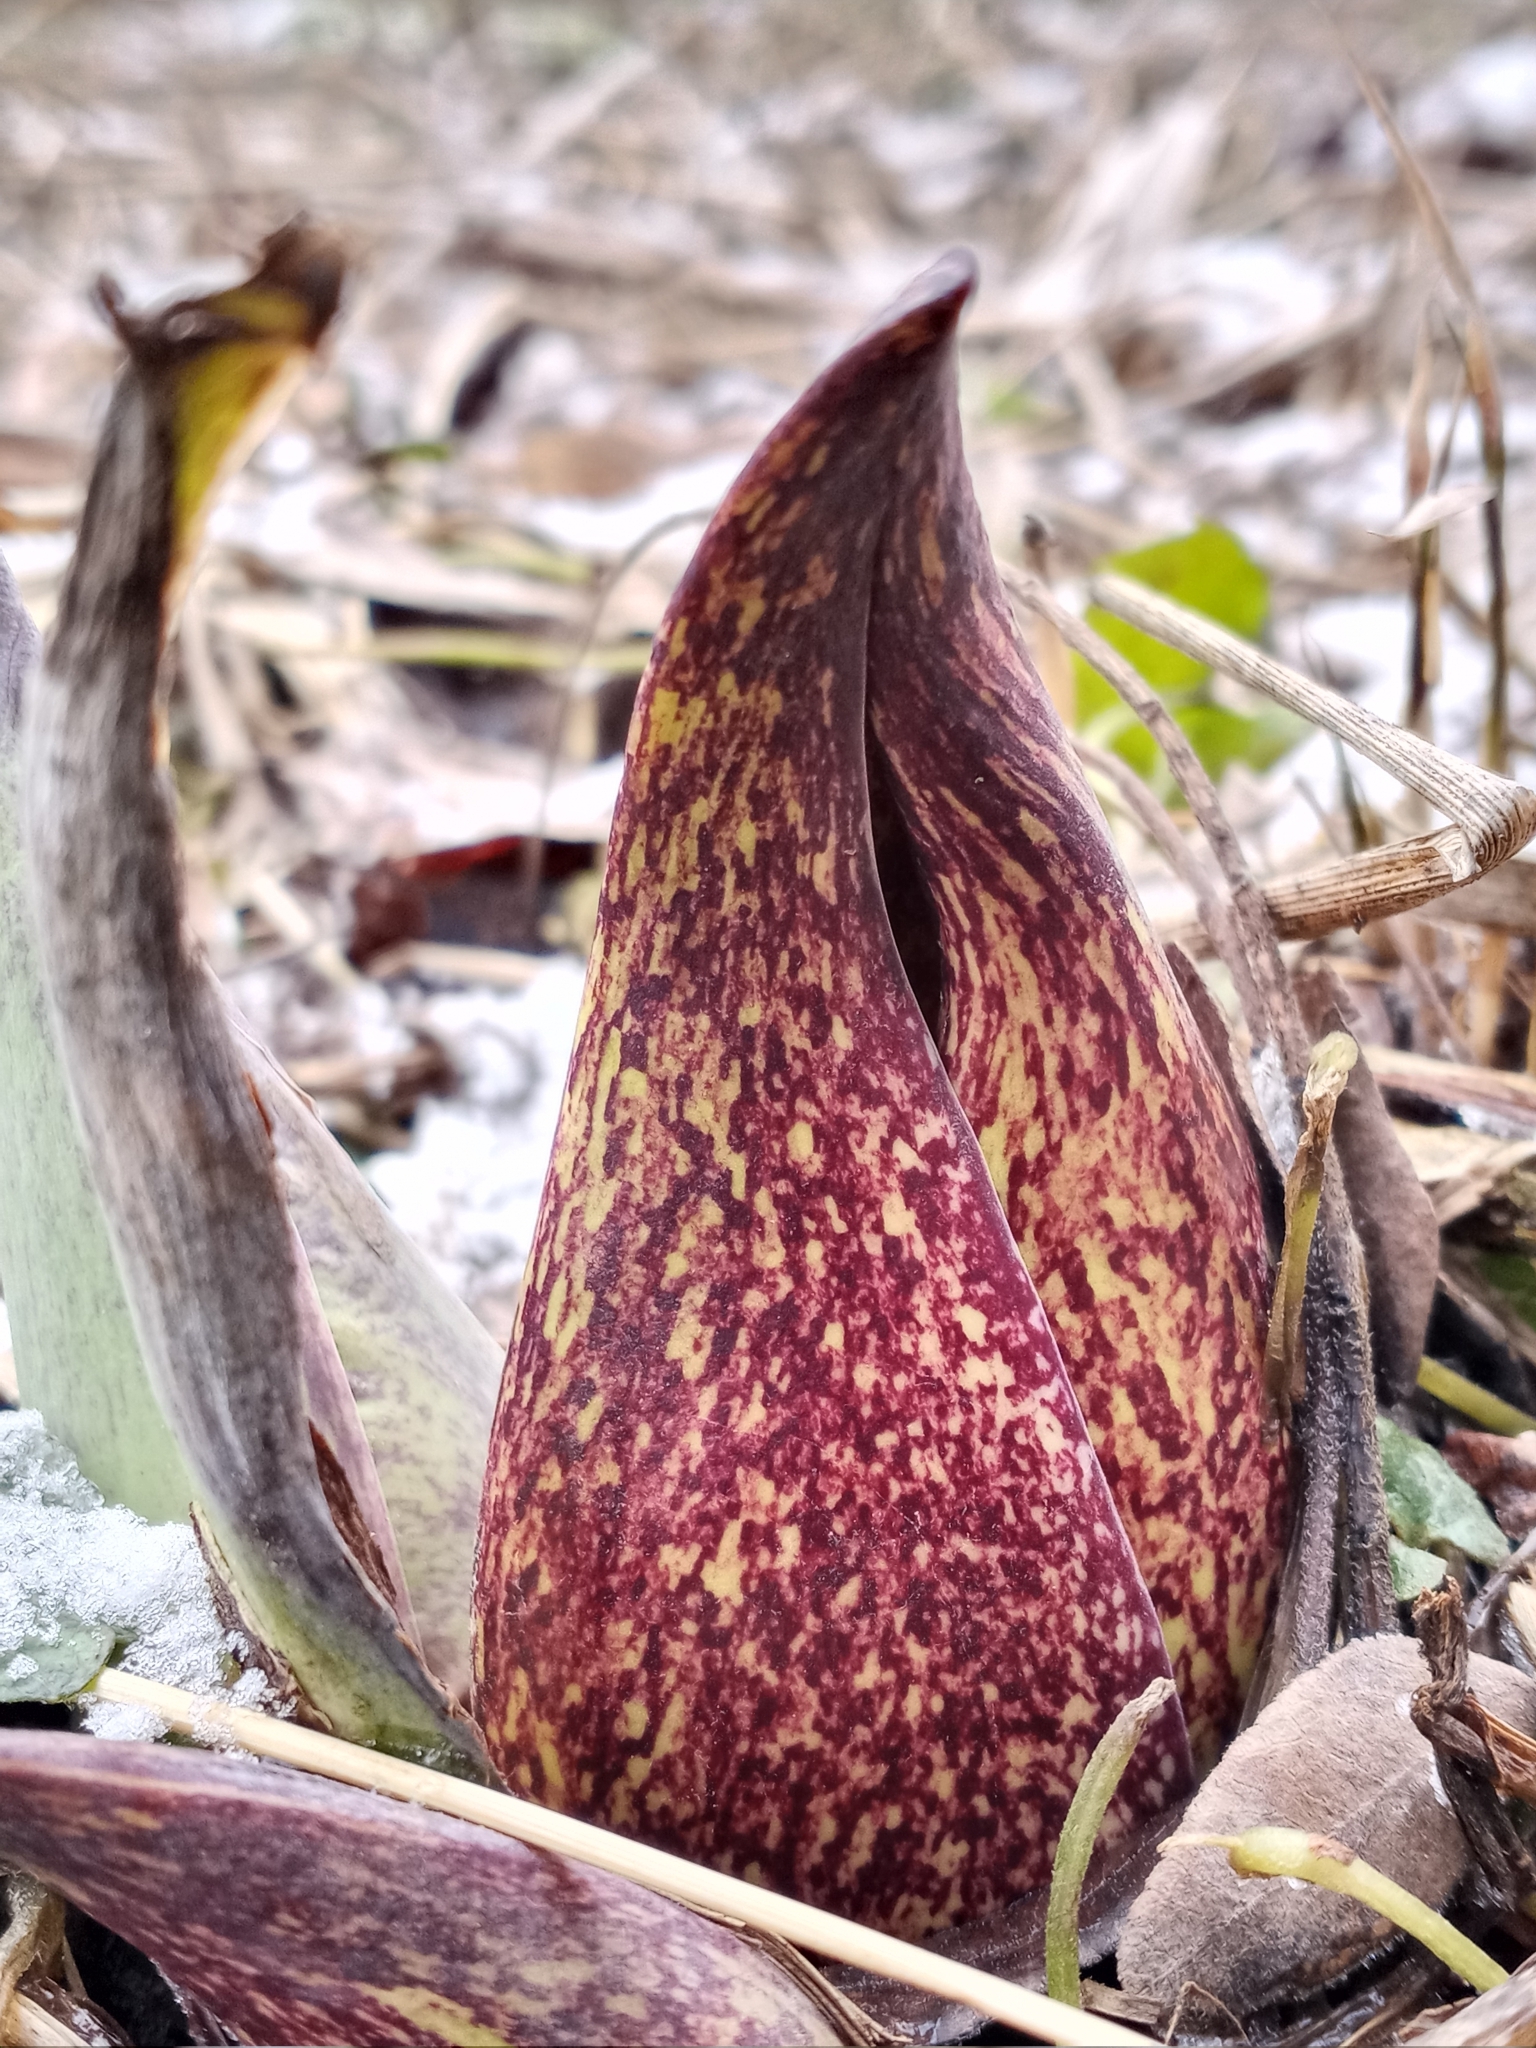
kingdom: Plantae
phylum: Tracheophyta
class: Liliopsida
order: Alismatales
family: Araceae
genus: Symplocarpus
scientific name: Symplocarpus foetidus
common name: Eastern skunk cabbage
